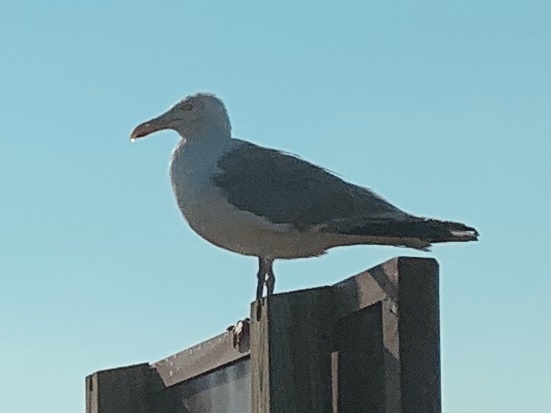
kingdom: Animalia
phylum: Chordata
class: Aves
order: Charadriiformes
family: Laridae
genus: Larus
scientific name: Larus argentatus
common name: Herring gull
